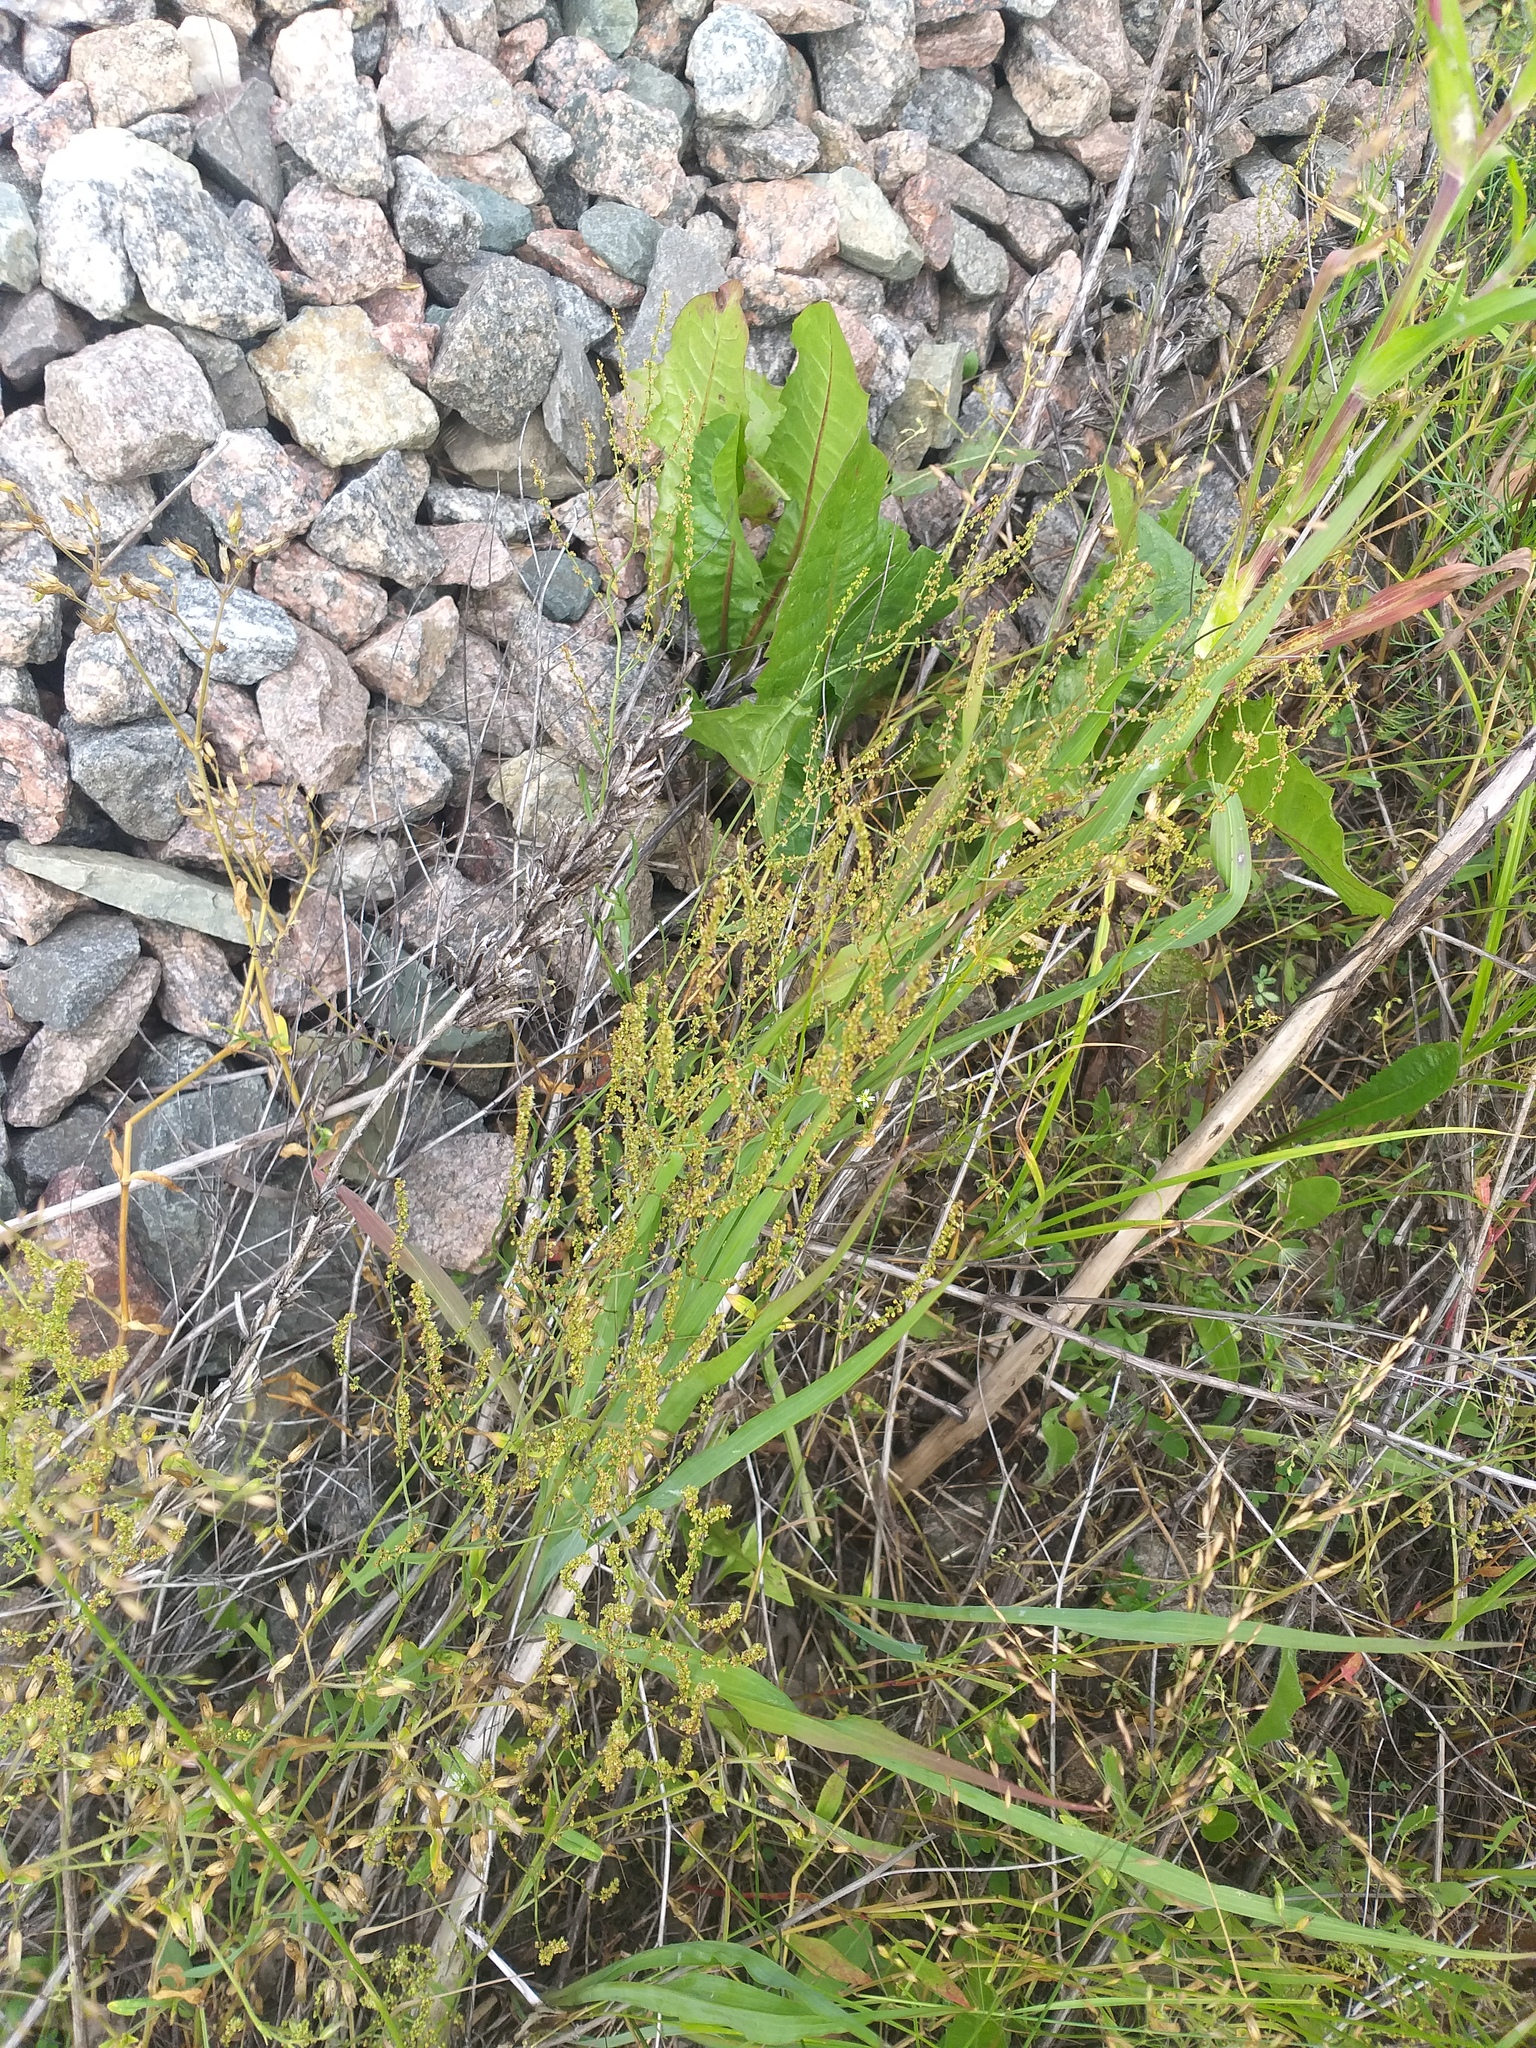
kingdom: Plantae
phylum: Tracheophyta
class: Magnoliopsida
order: Caryophyllales
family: Polygonaceae
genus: Rumex
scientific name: Rumex acetosella
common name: Common sheep sorrel
